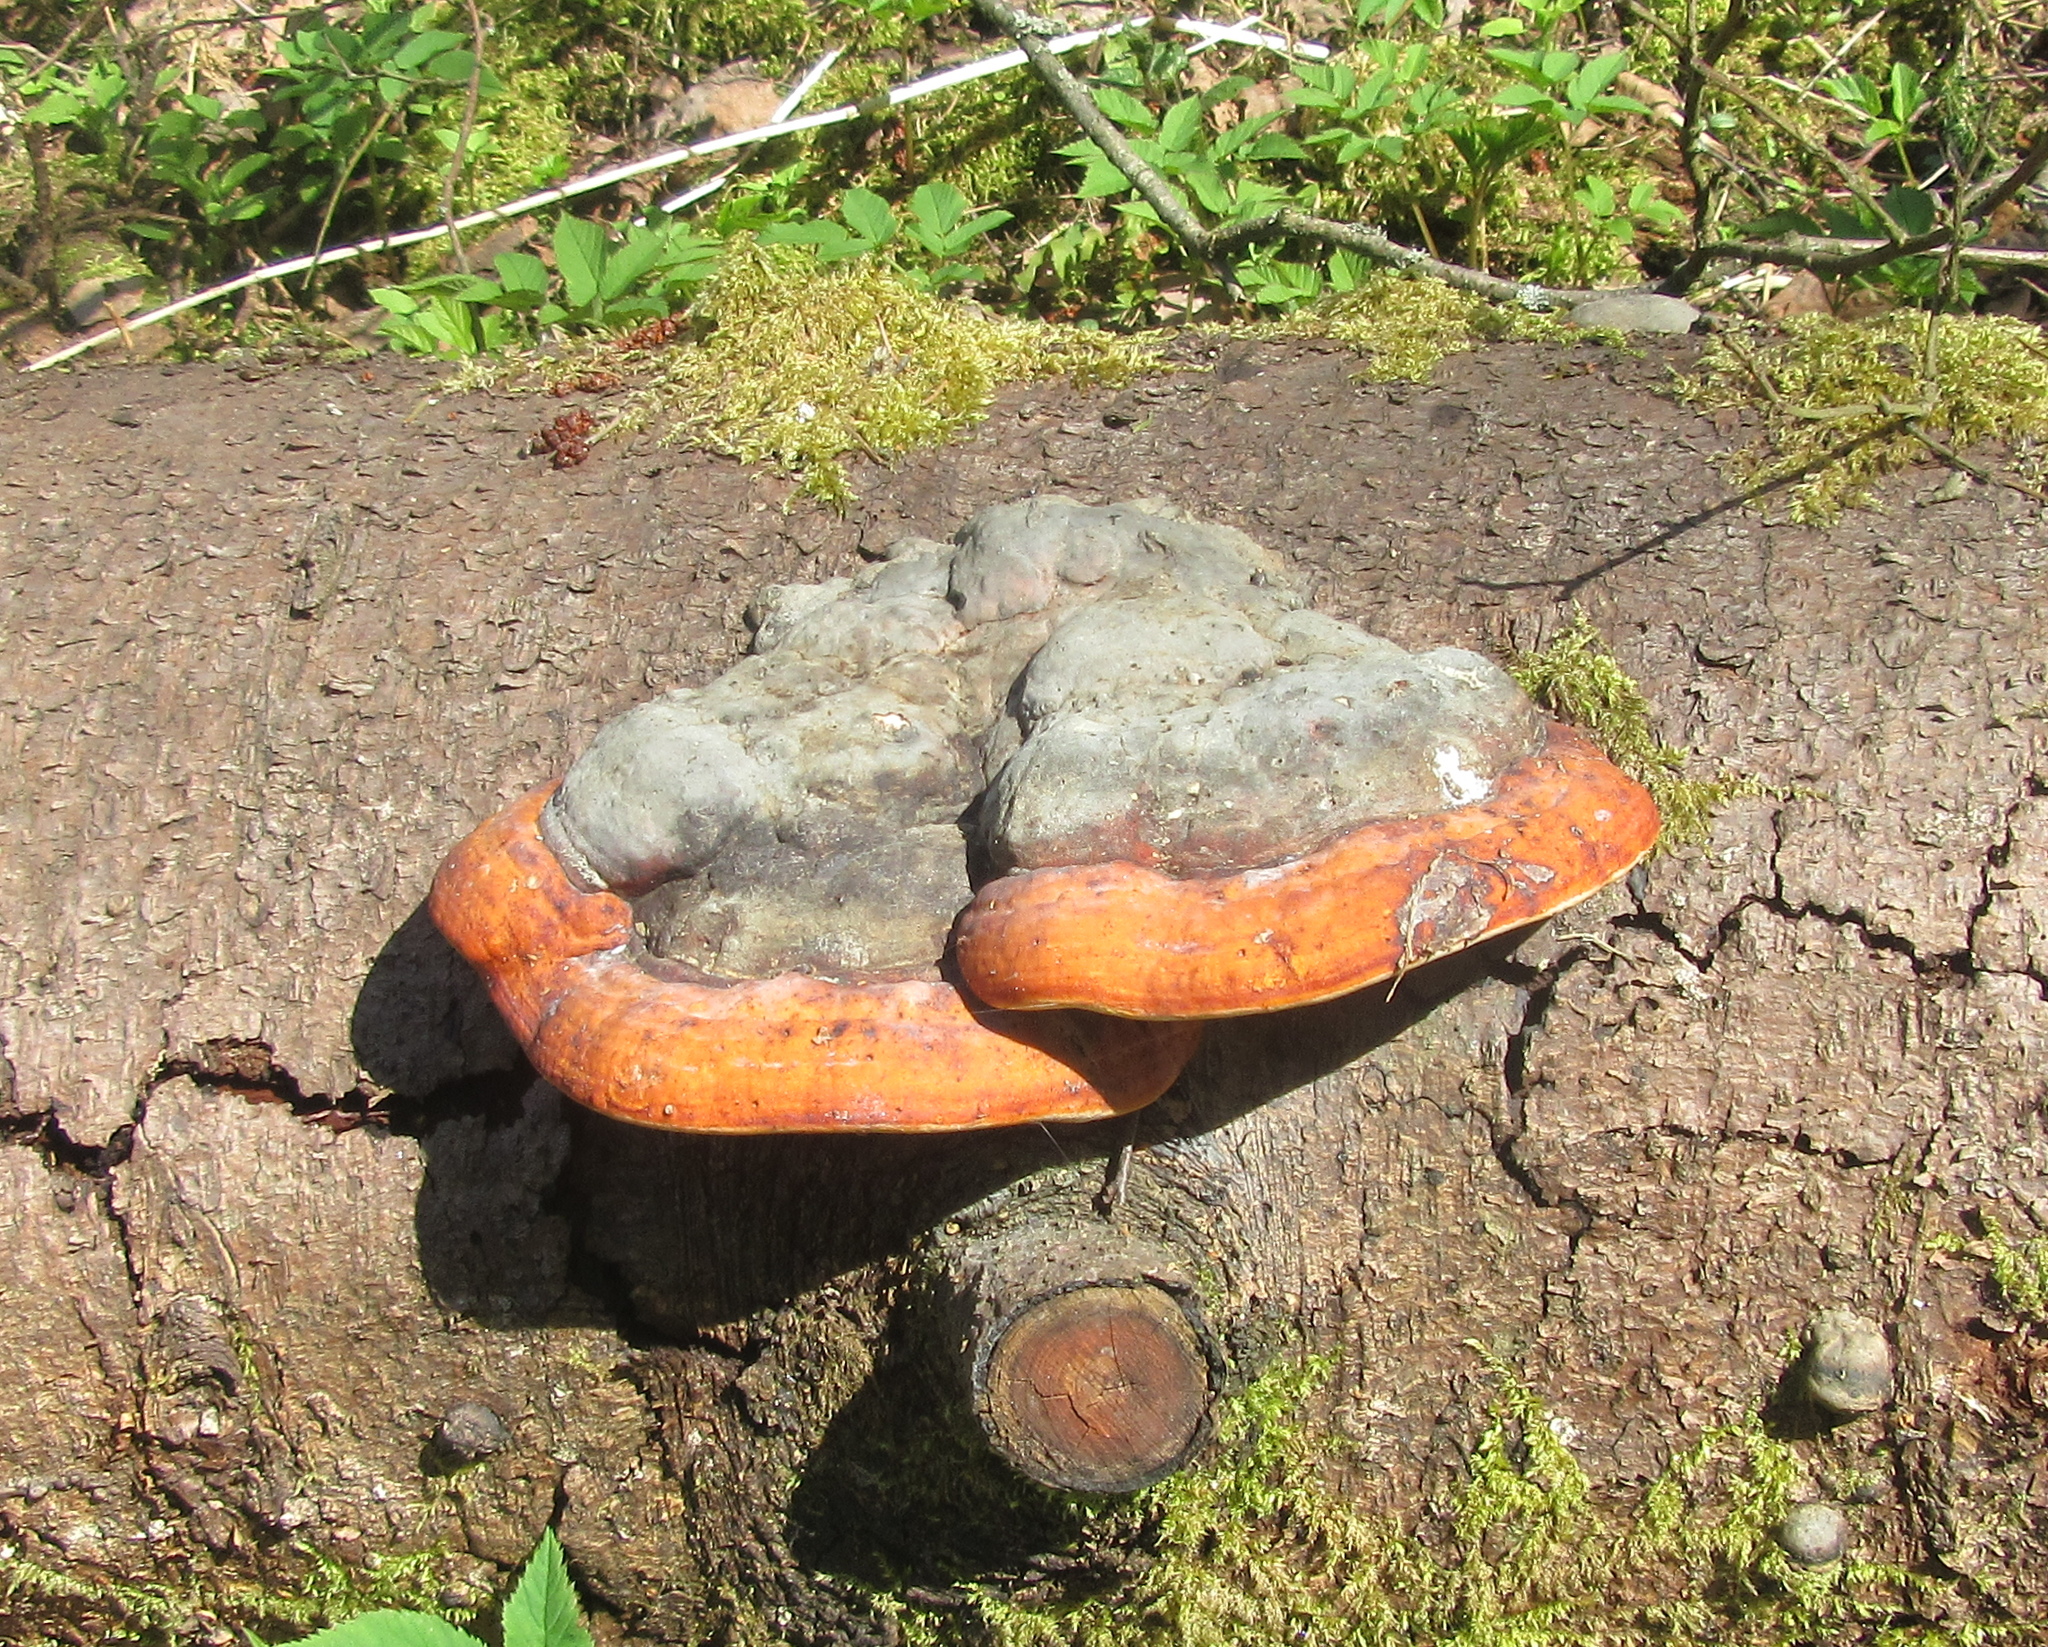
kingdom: Fungi
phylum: Basidiomycota
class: Agaricomycetes
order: Polyporales
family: Fomitopsidaceae
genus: Fomitopsis
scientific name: Fomitopsis pinicola
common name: Red-belted bracket
